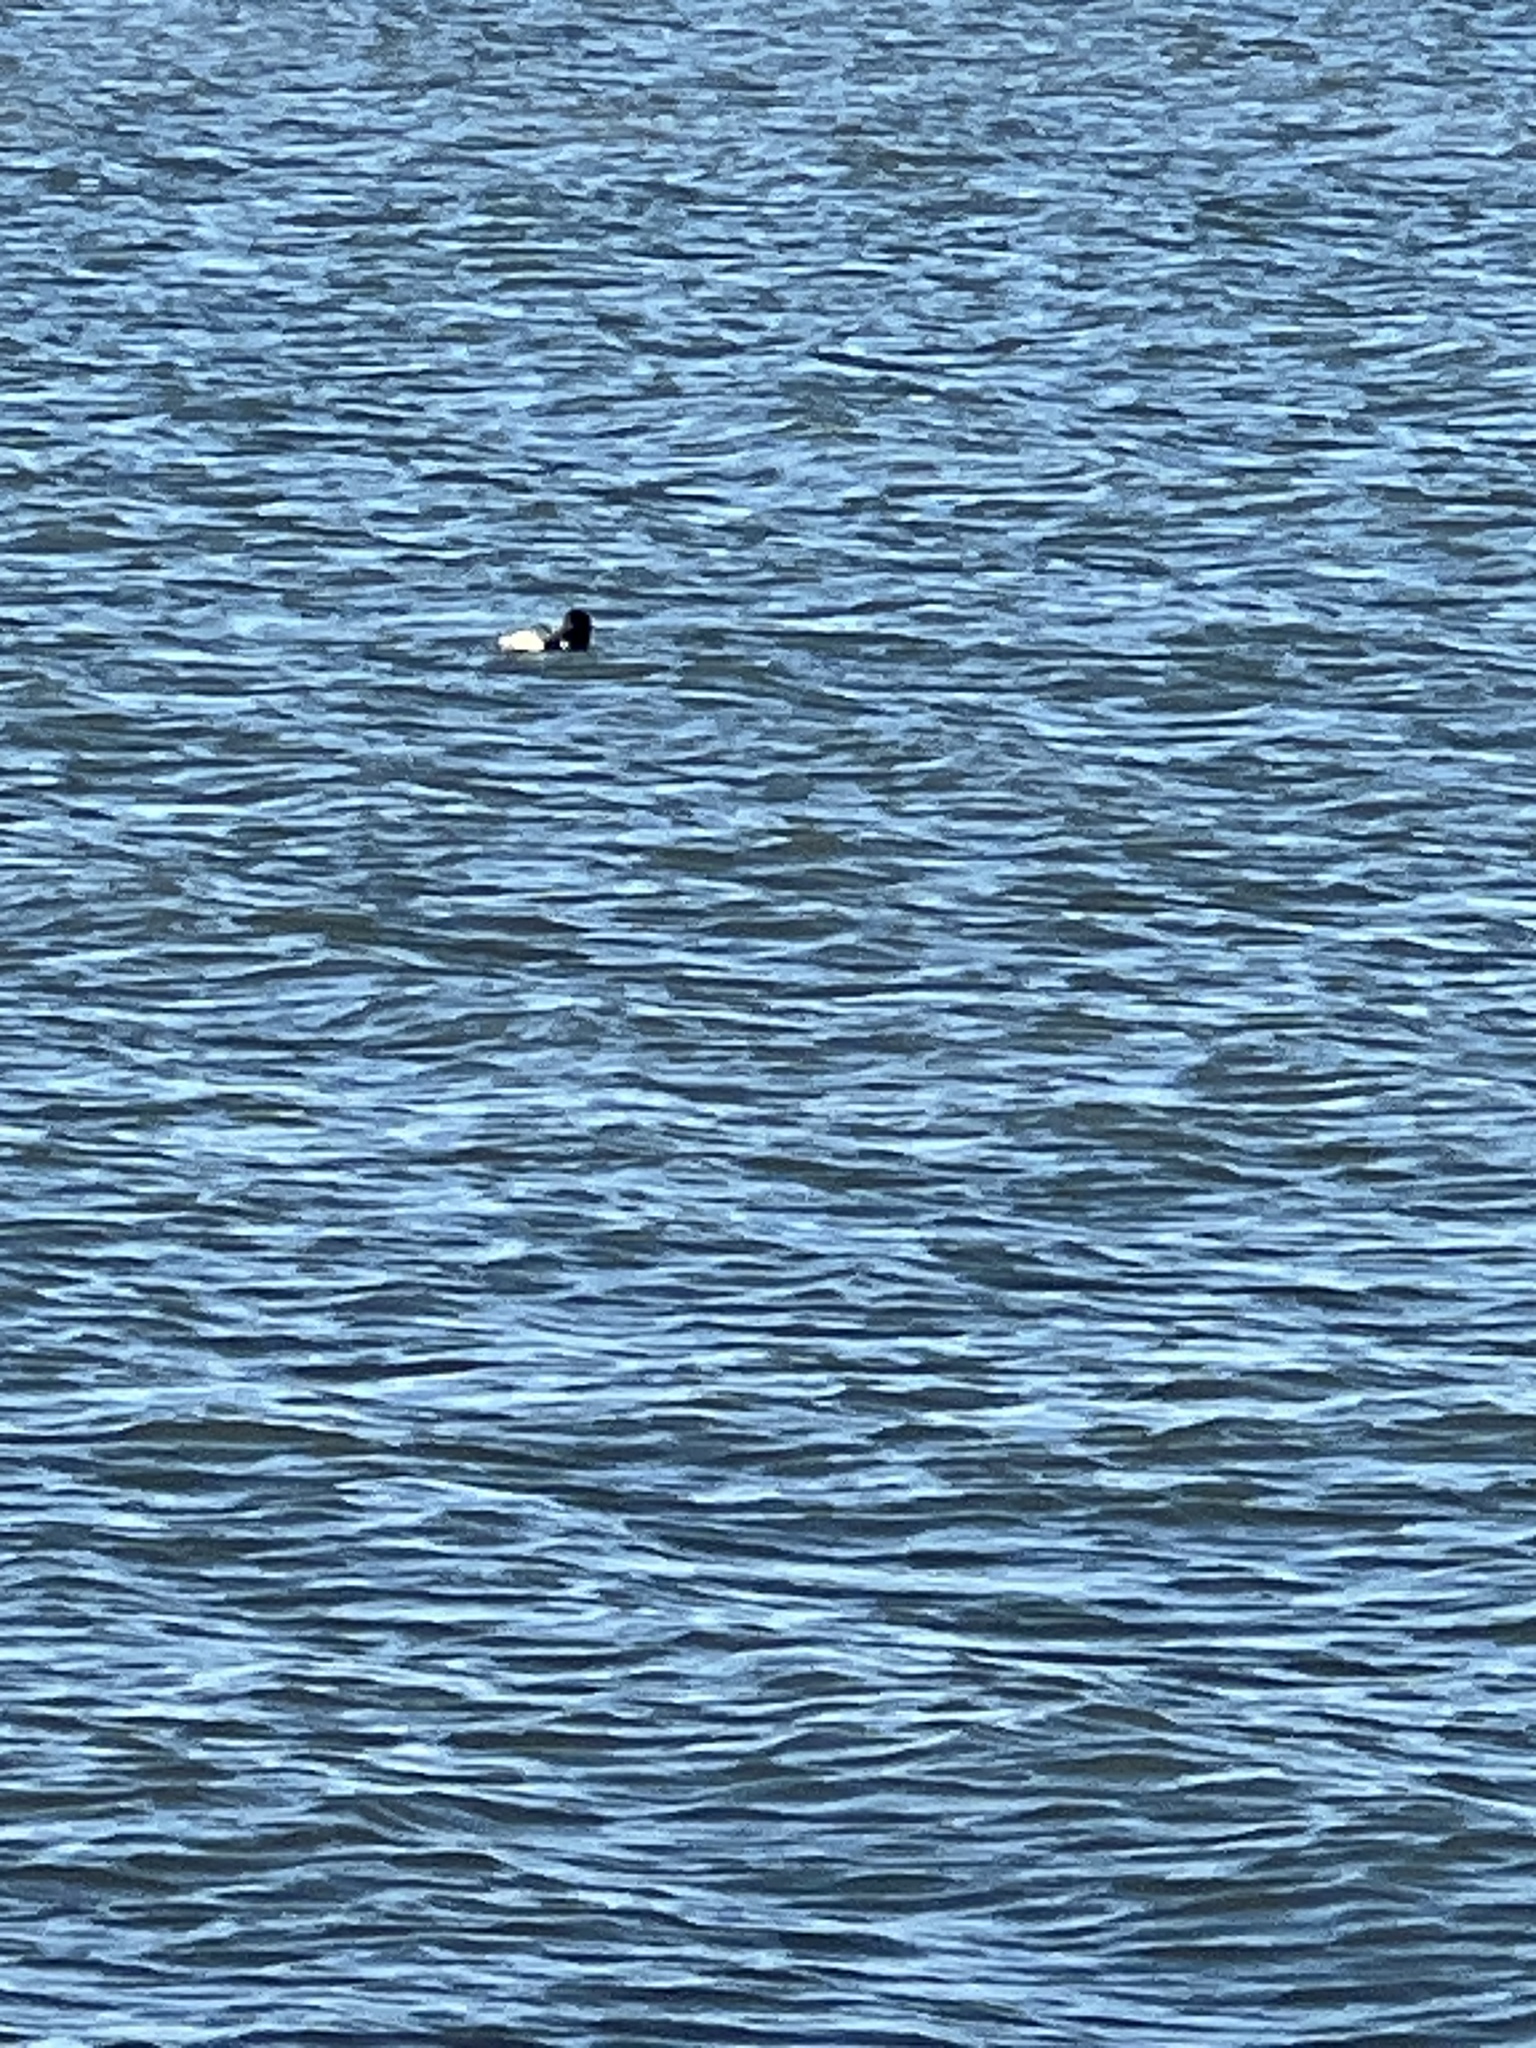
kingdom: Animalia
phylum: Chordata
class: Aves
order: Gaviiformes
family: Gaviidae
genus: Gavia
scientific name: Gavia immer
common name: Common loon
